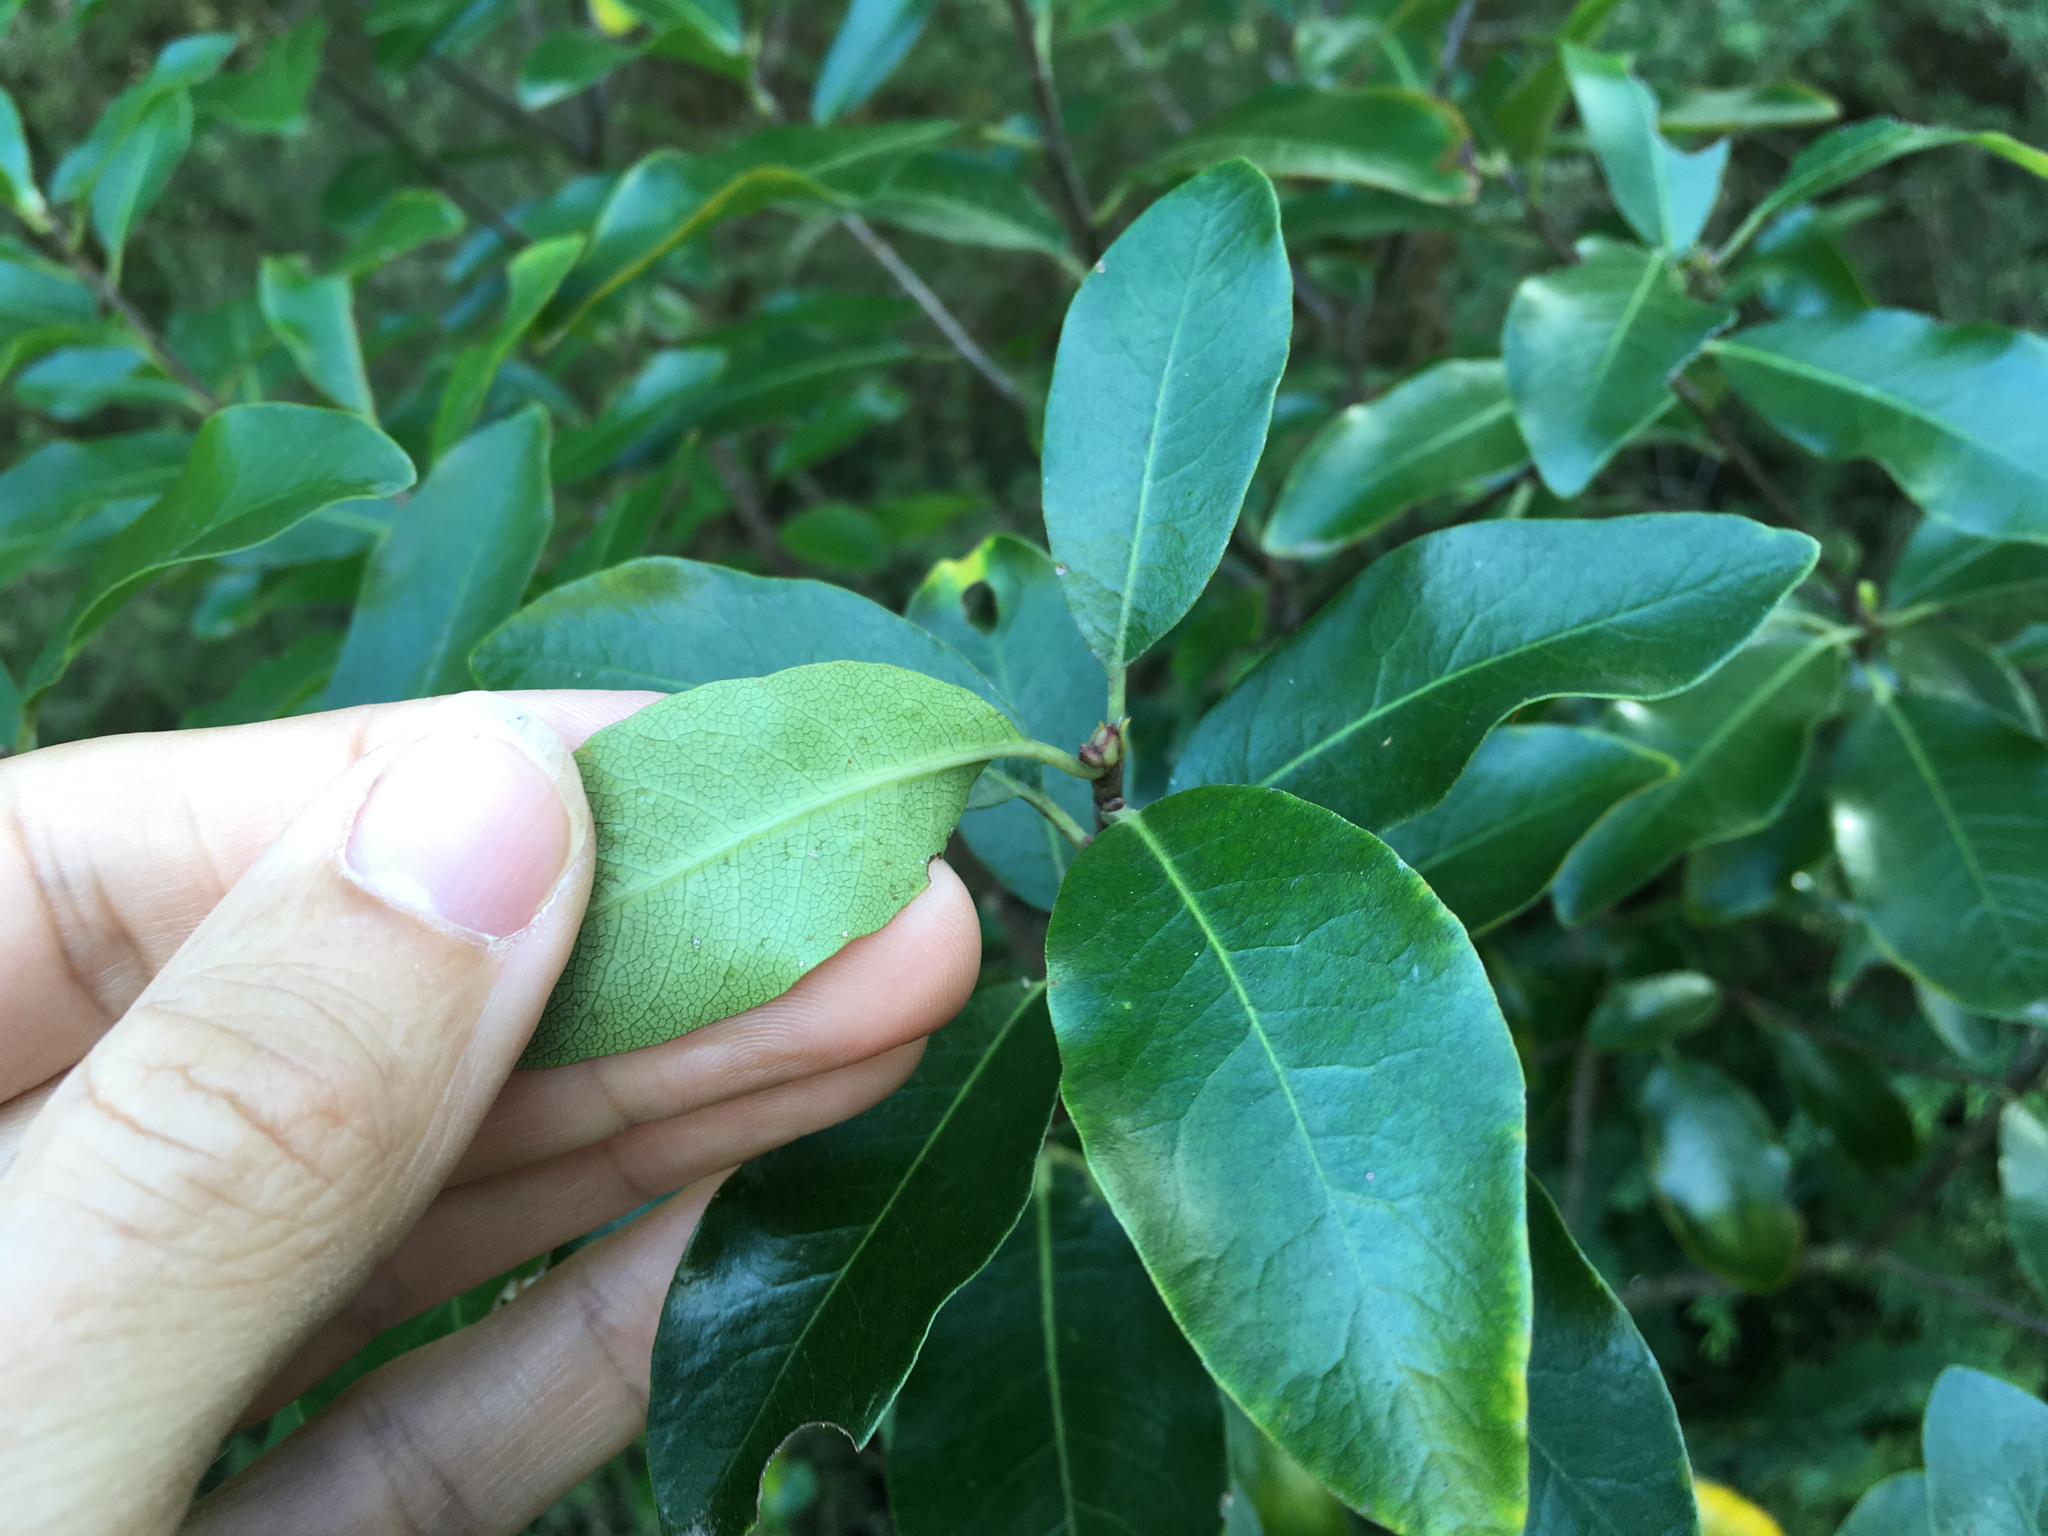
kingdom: Plantae
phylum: Tracheophyta
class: Magnoliopsida
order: Apiales
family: Pittosporaceae
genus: Pittosporum
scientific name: Pittosporum colensoi
